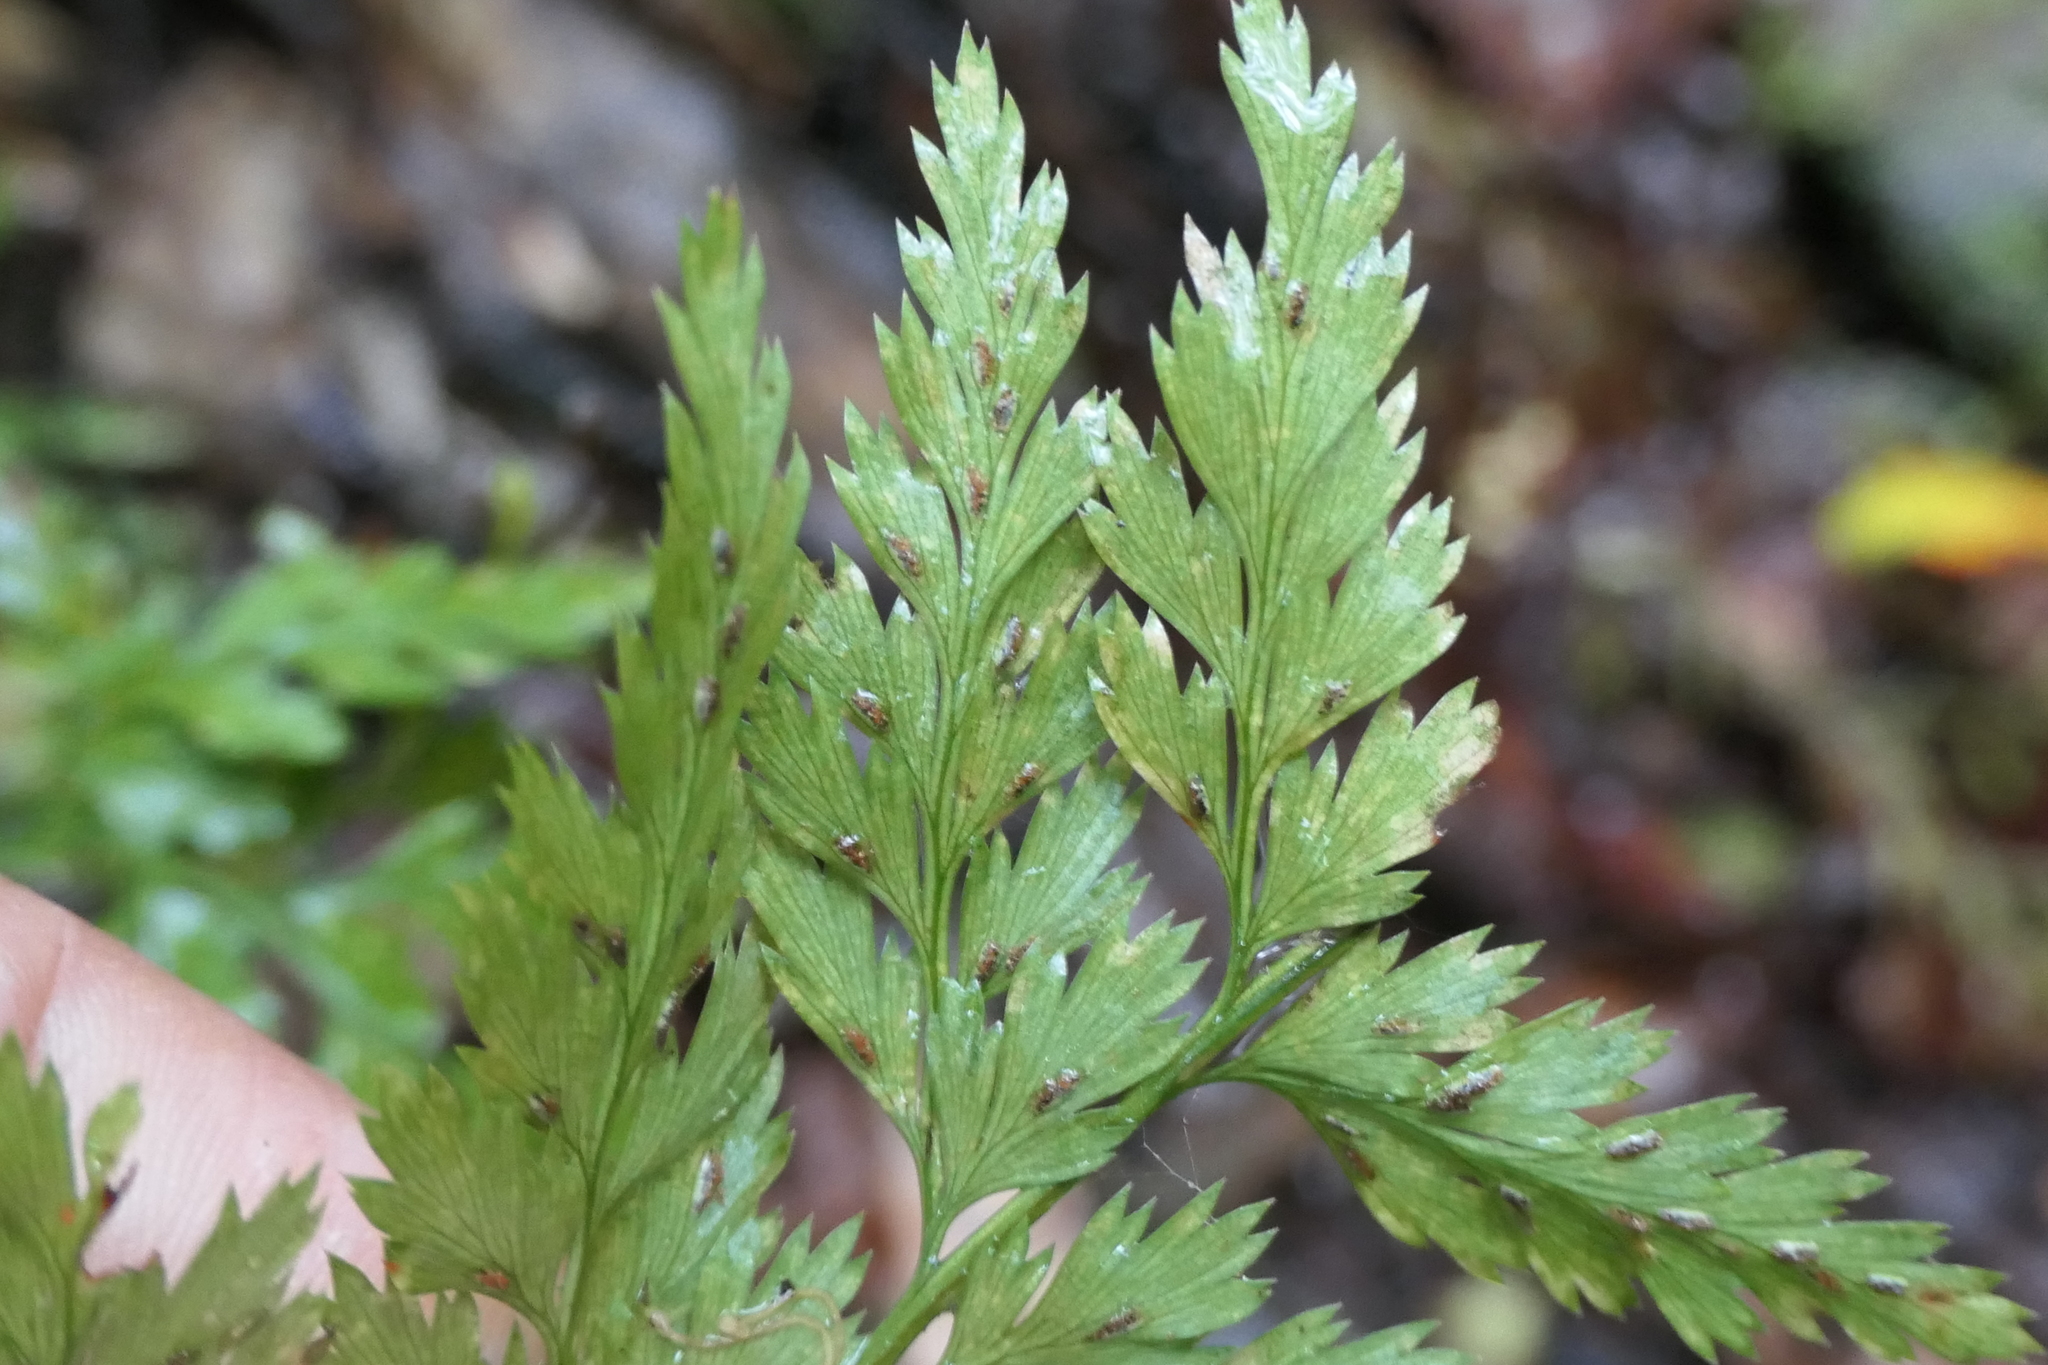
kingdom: Plantae
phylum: Tracheophyta
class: Polypodiopsida
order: Polypodiales
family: Aspleniaceae
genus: Asplenium
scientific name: Asplenium onopteris
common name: Irish spleenwort
